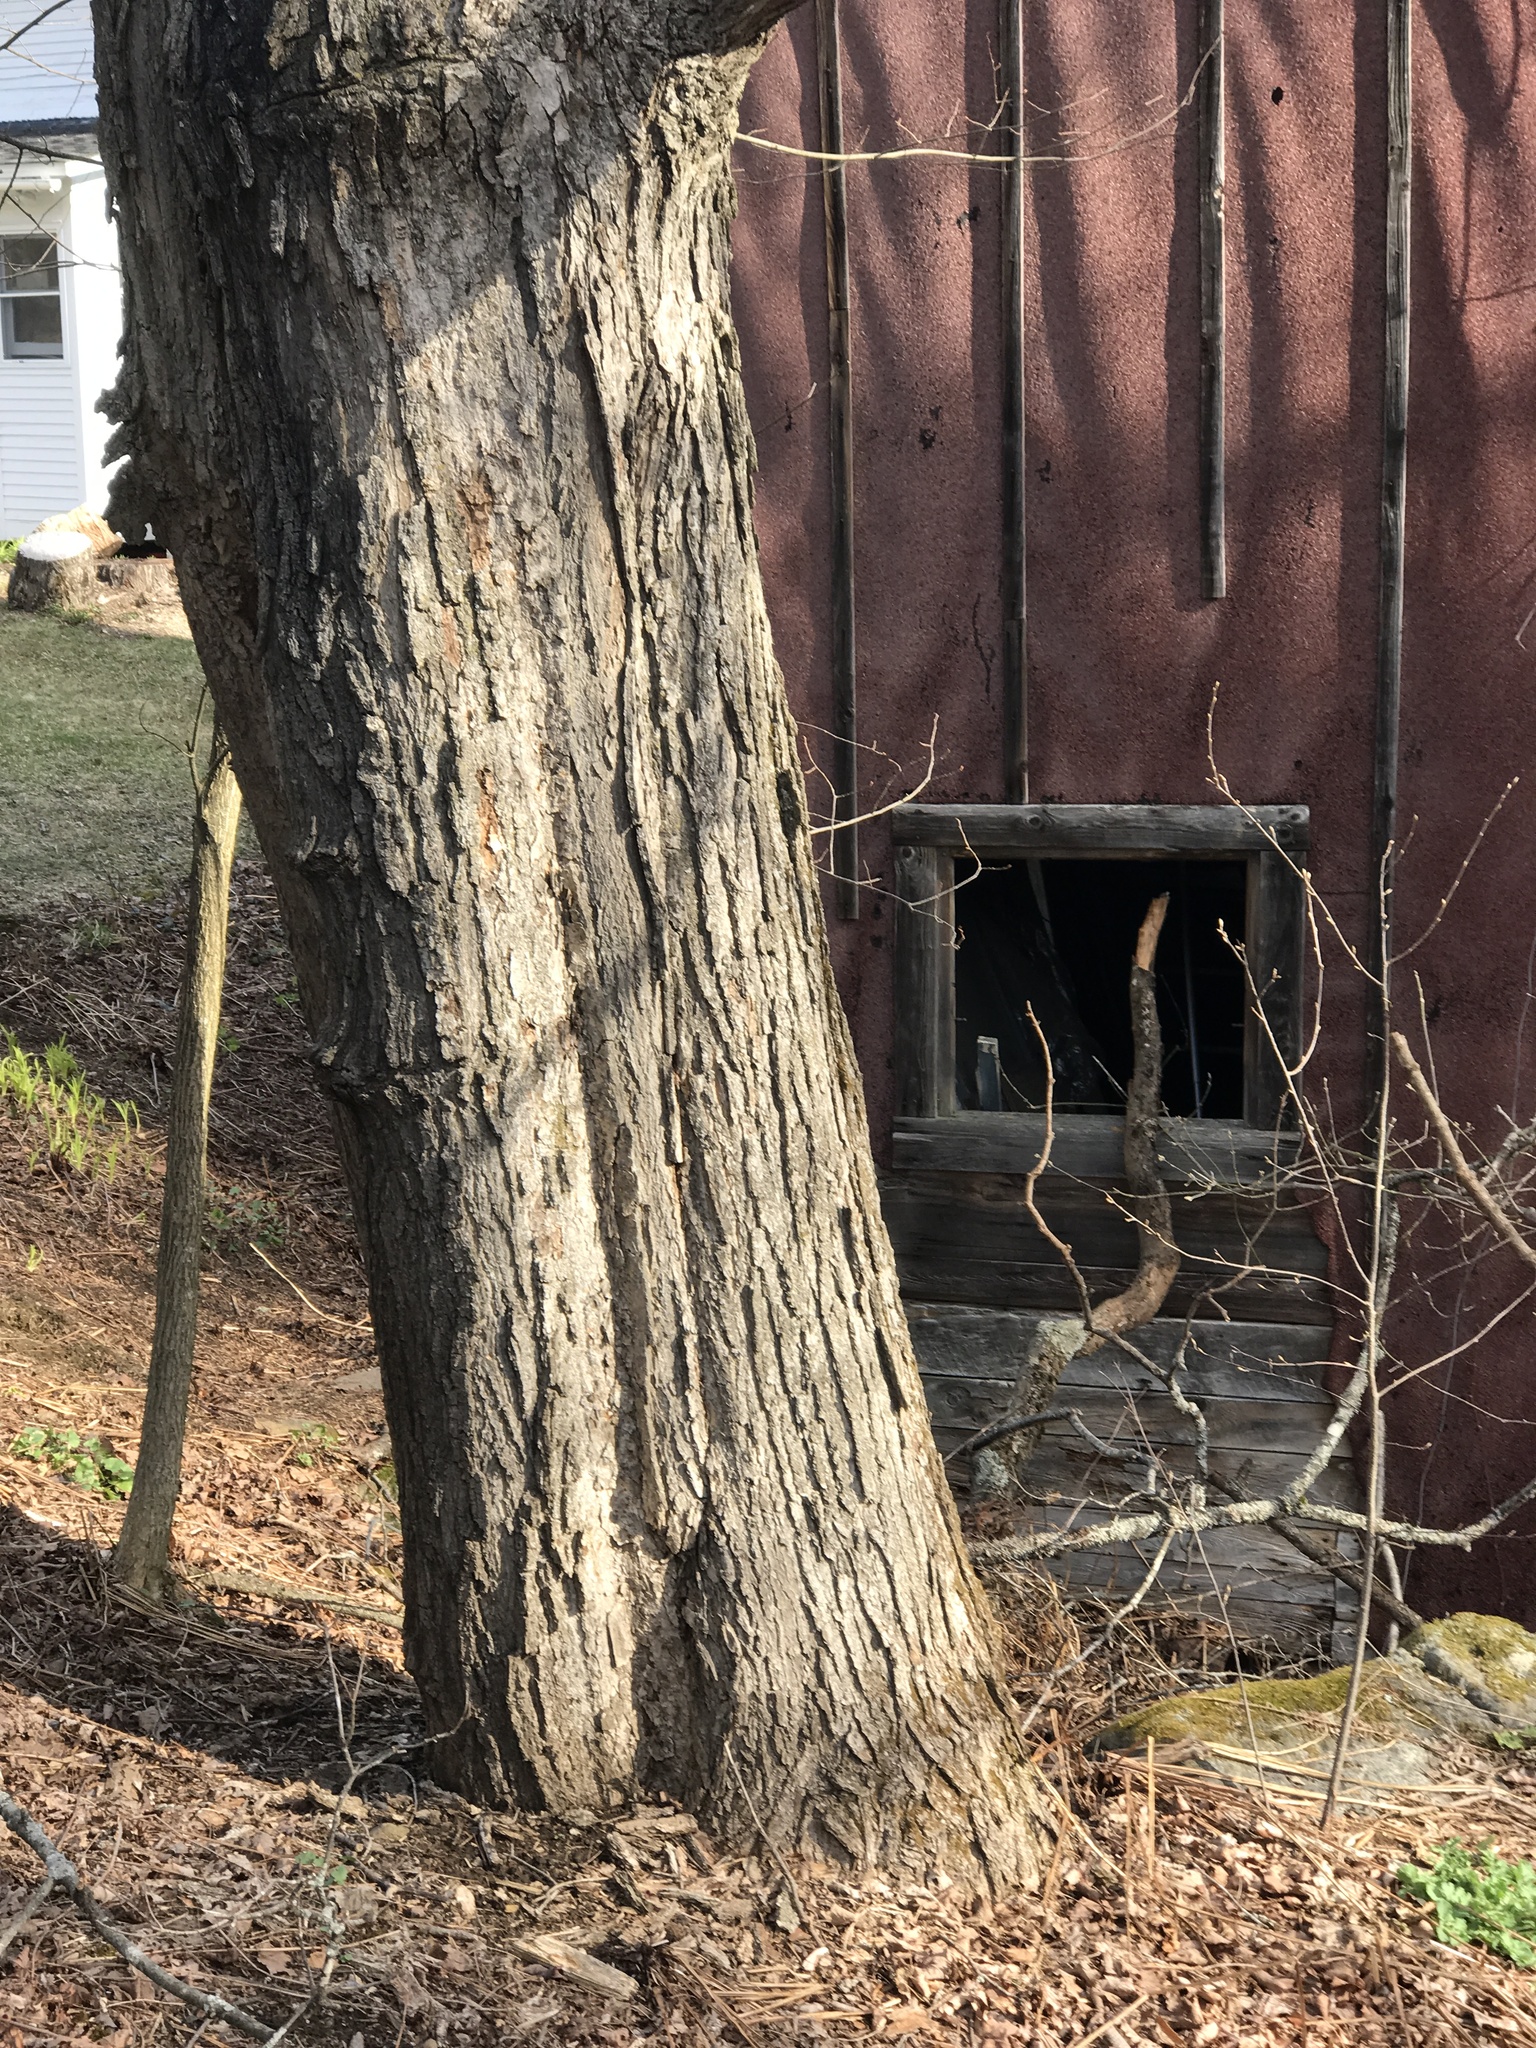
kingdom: Plantae
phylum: Tracheophyta
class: Magnoliopsida
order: Sapindales
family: Sapindaceae
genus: Acer
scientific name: Acer saccharum
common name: Sugar maple
